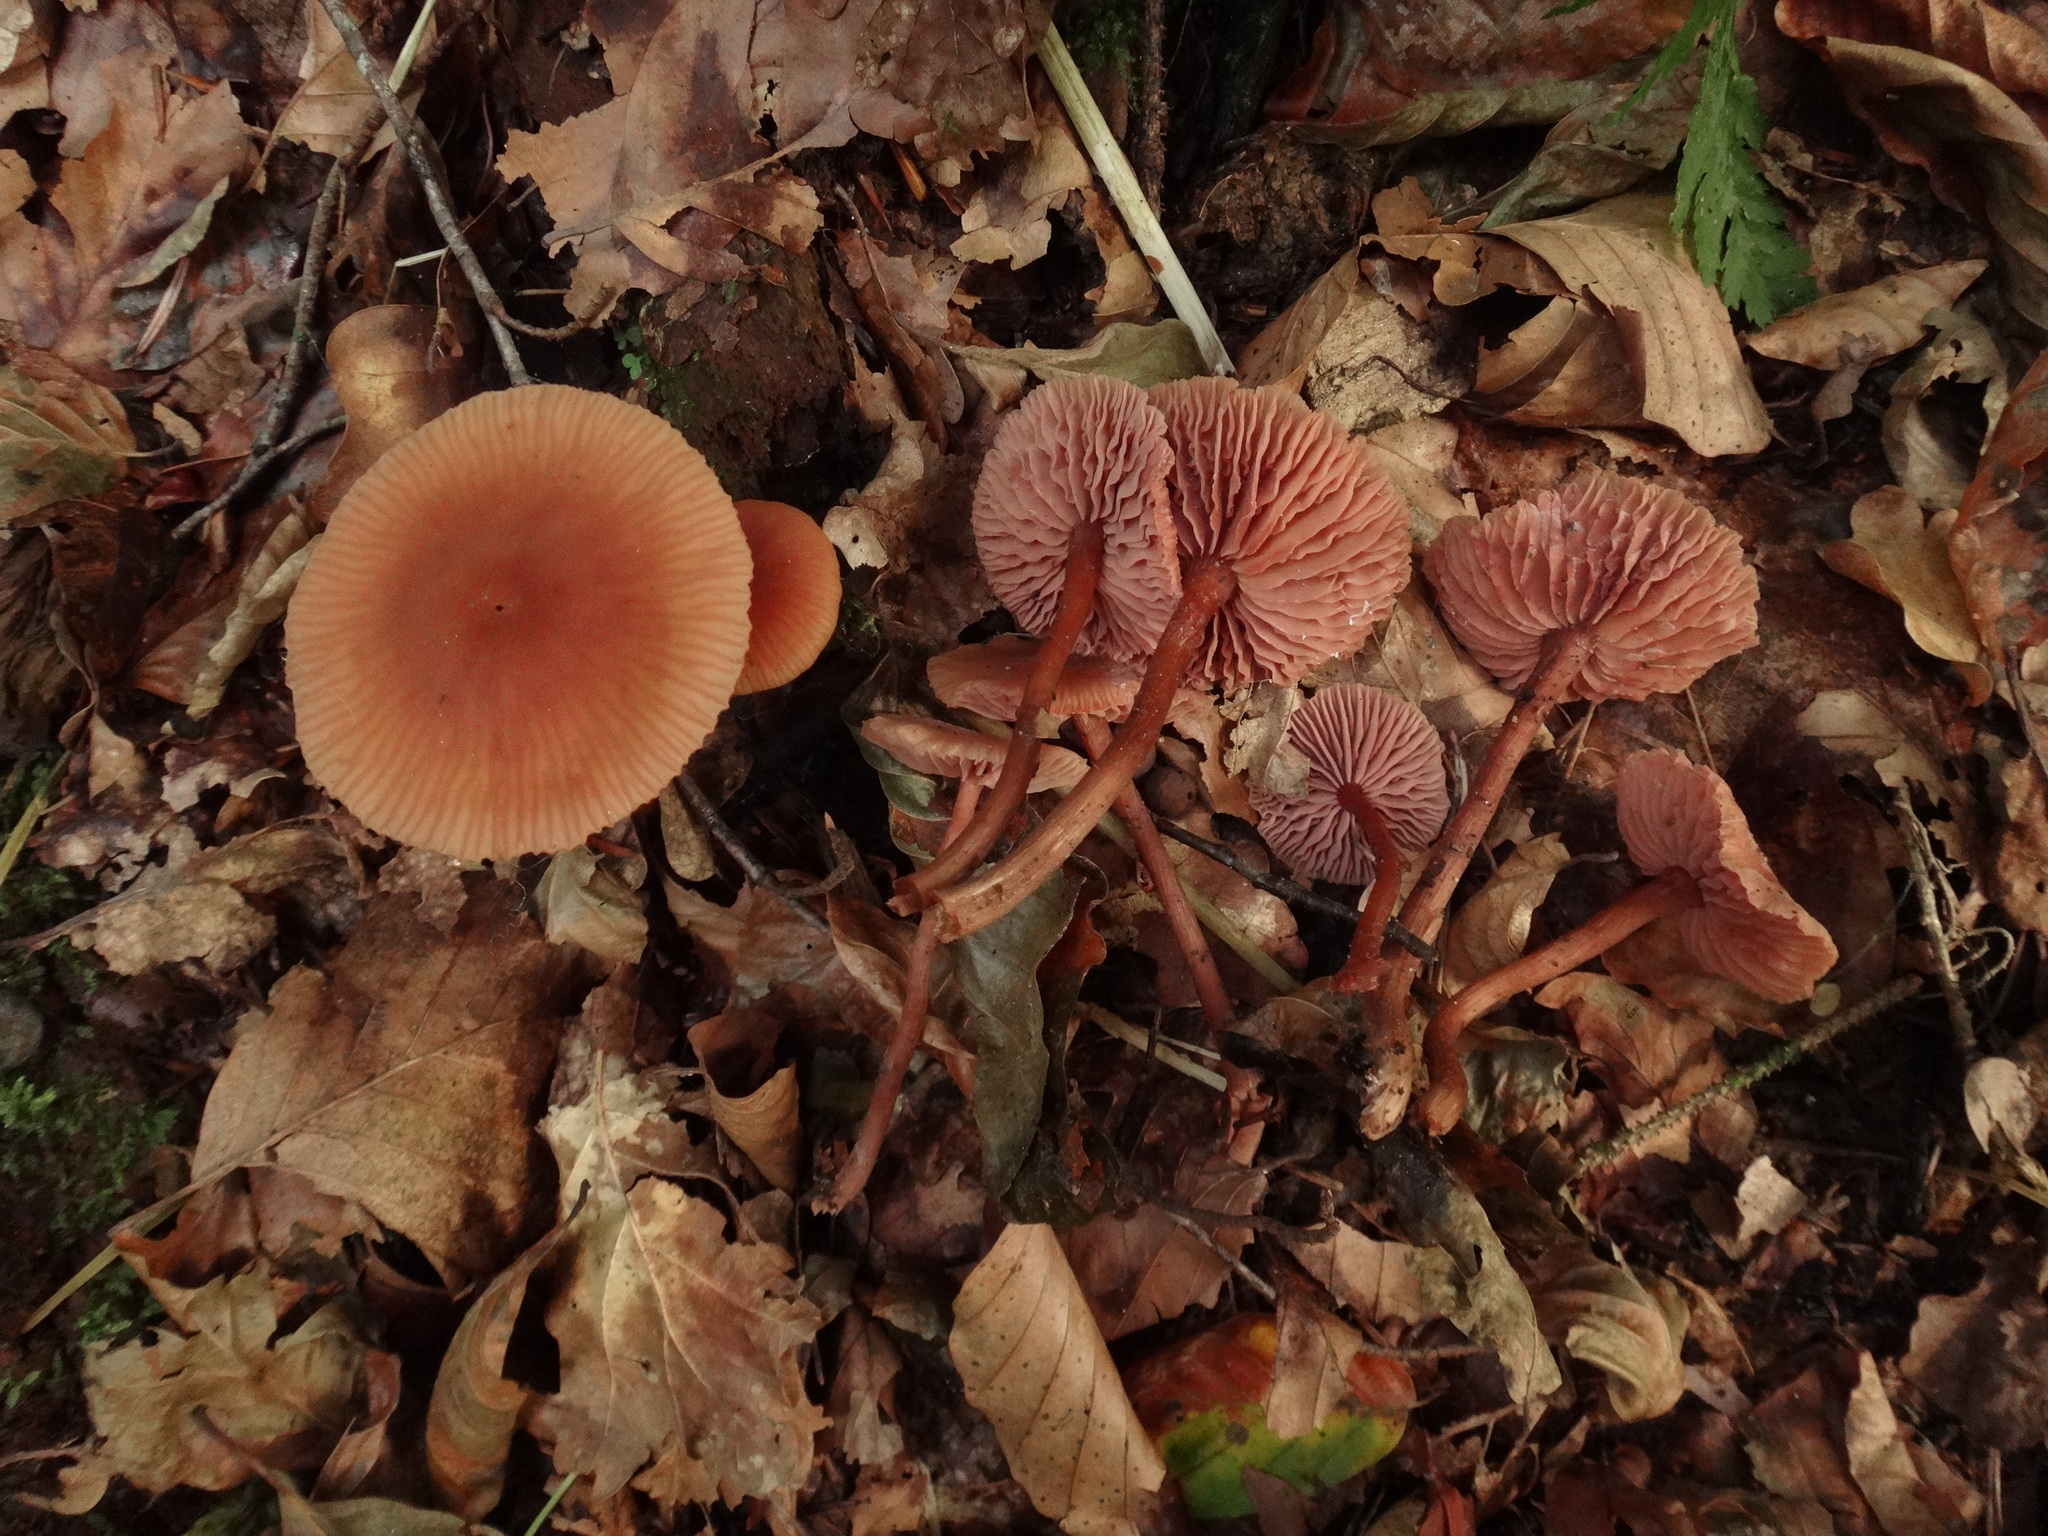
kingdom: Fungi
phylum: Basidiomycota
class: Agaricomycetes
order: Agaricales
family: Hydnangiaceae
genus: Laccaria
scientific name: Laccaria laccata
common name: Deceiver
